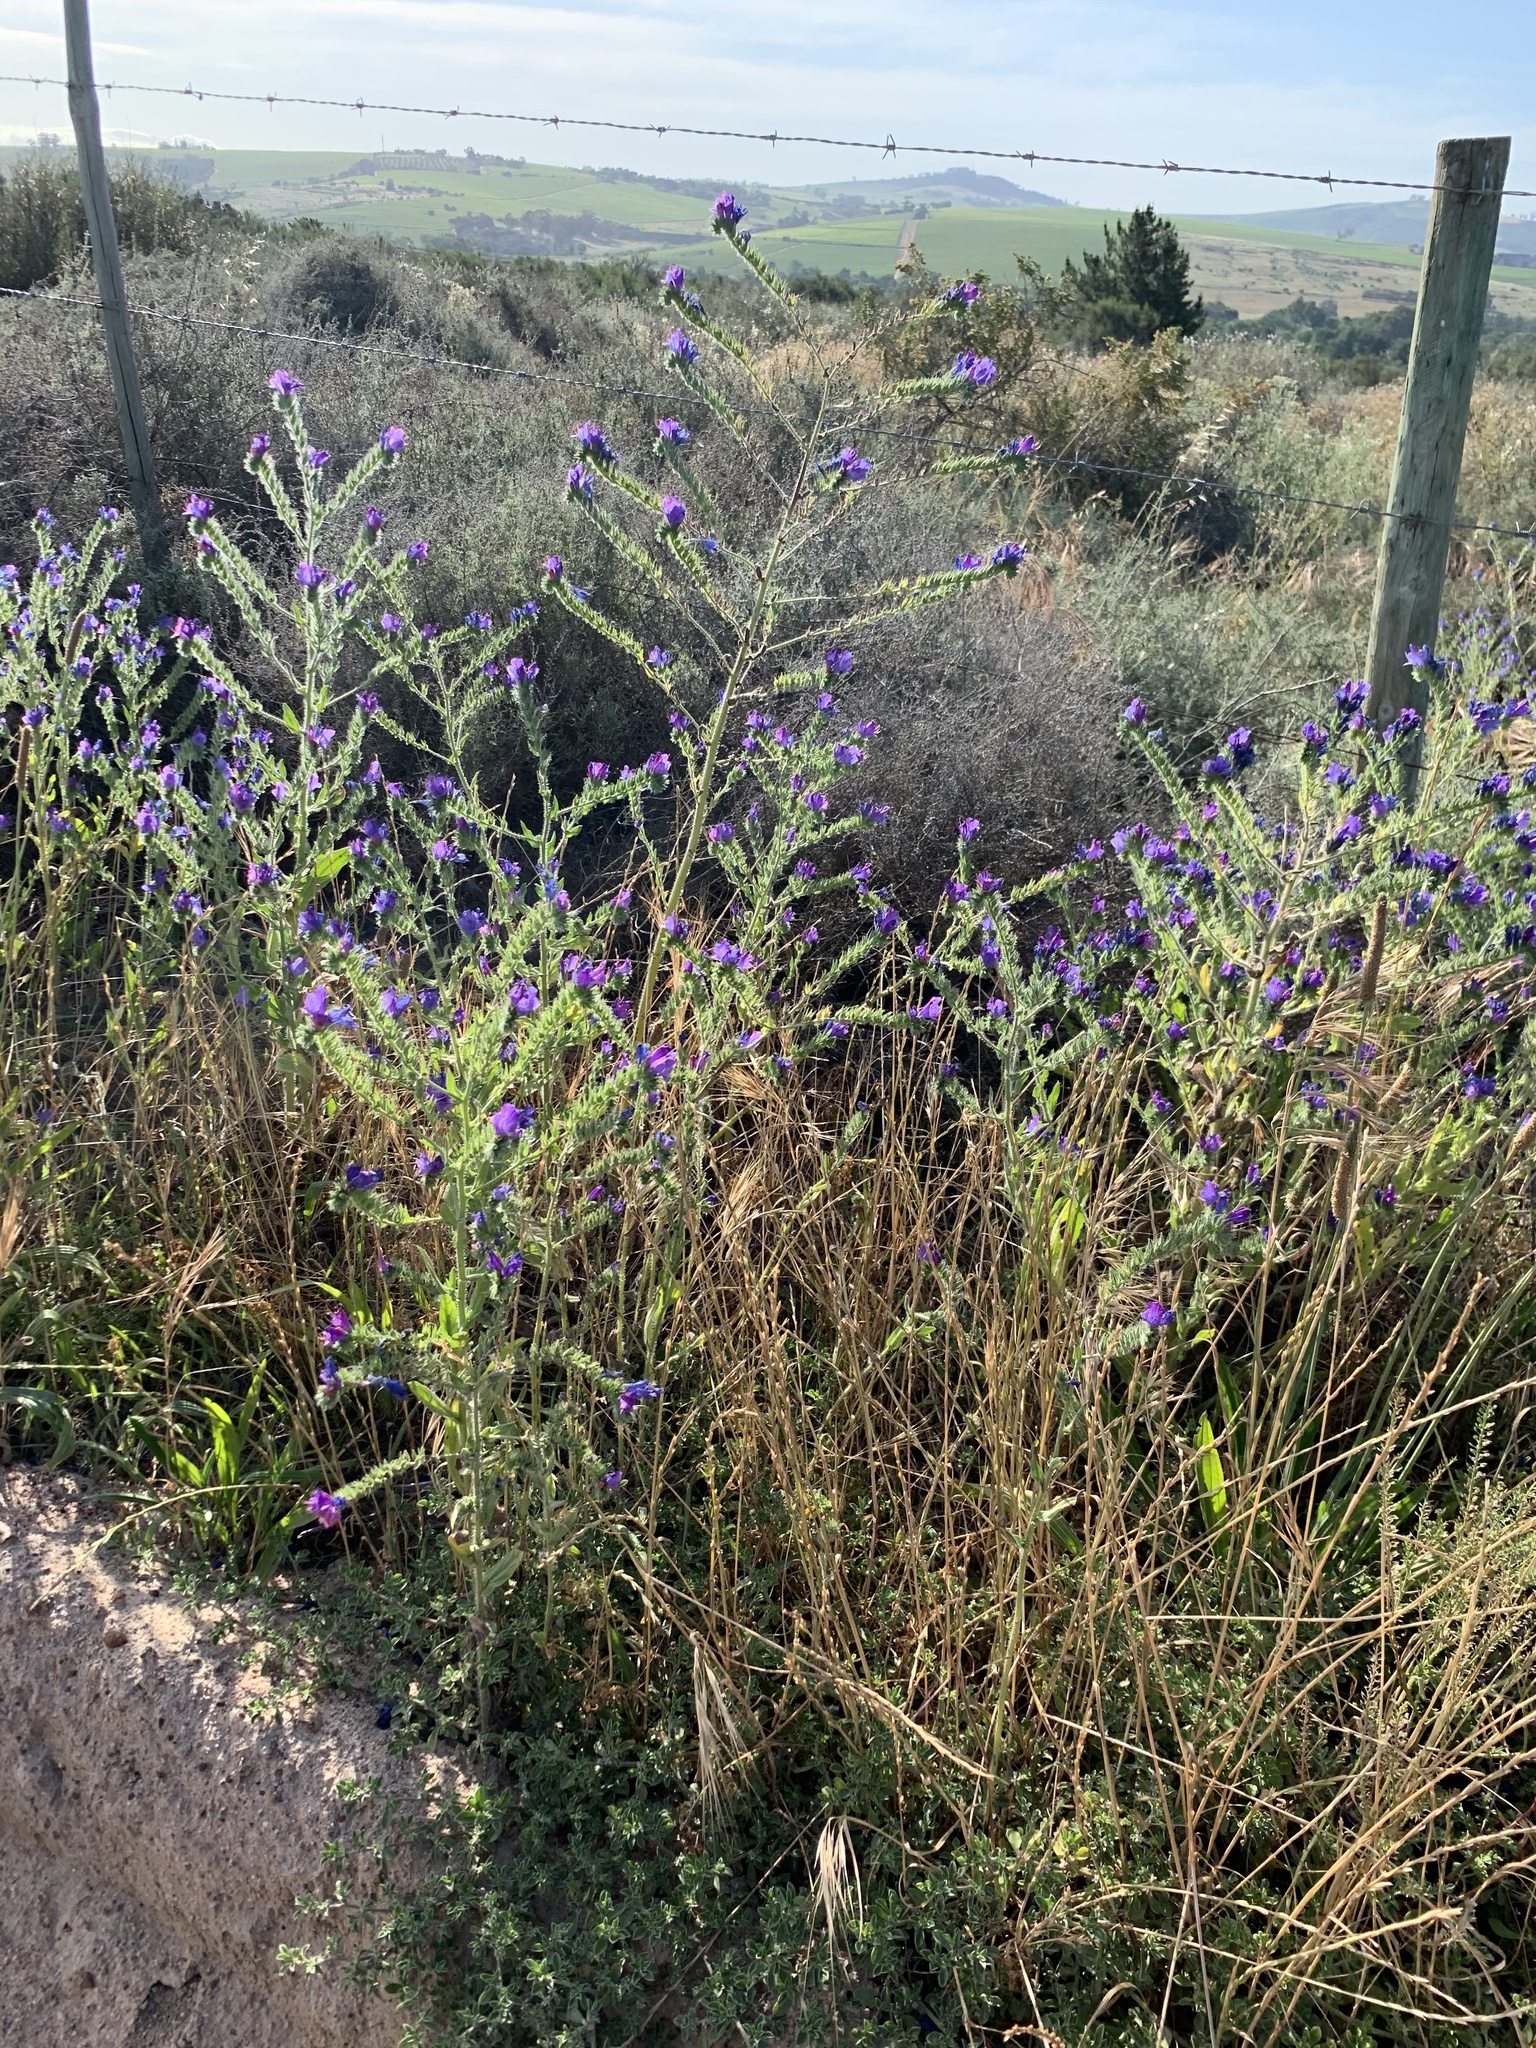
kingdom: Plantae
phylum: Tracheophyta
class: Magnoliopsida
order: Boraginales
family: Boraginaceae
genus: Echium
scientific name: Echium plantagineum
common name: Purple viper's-bugloss
